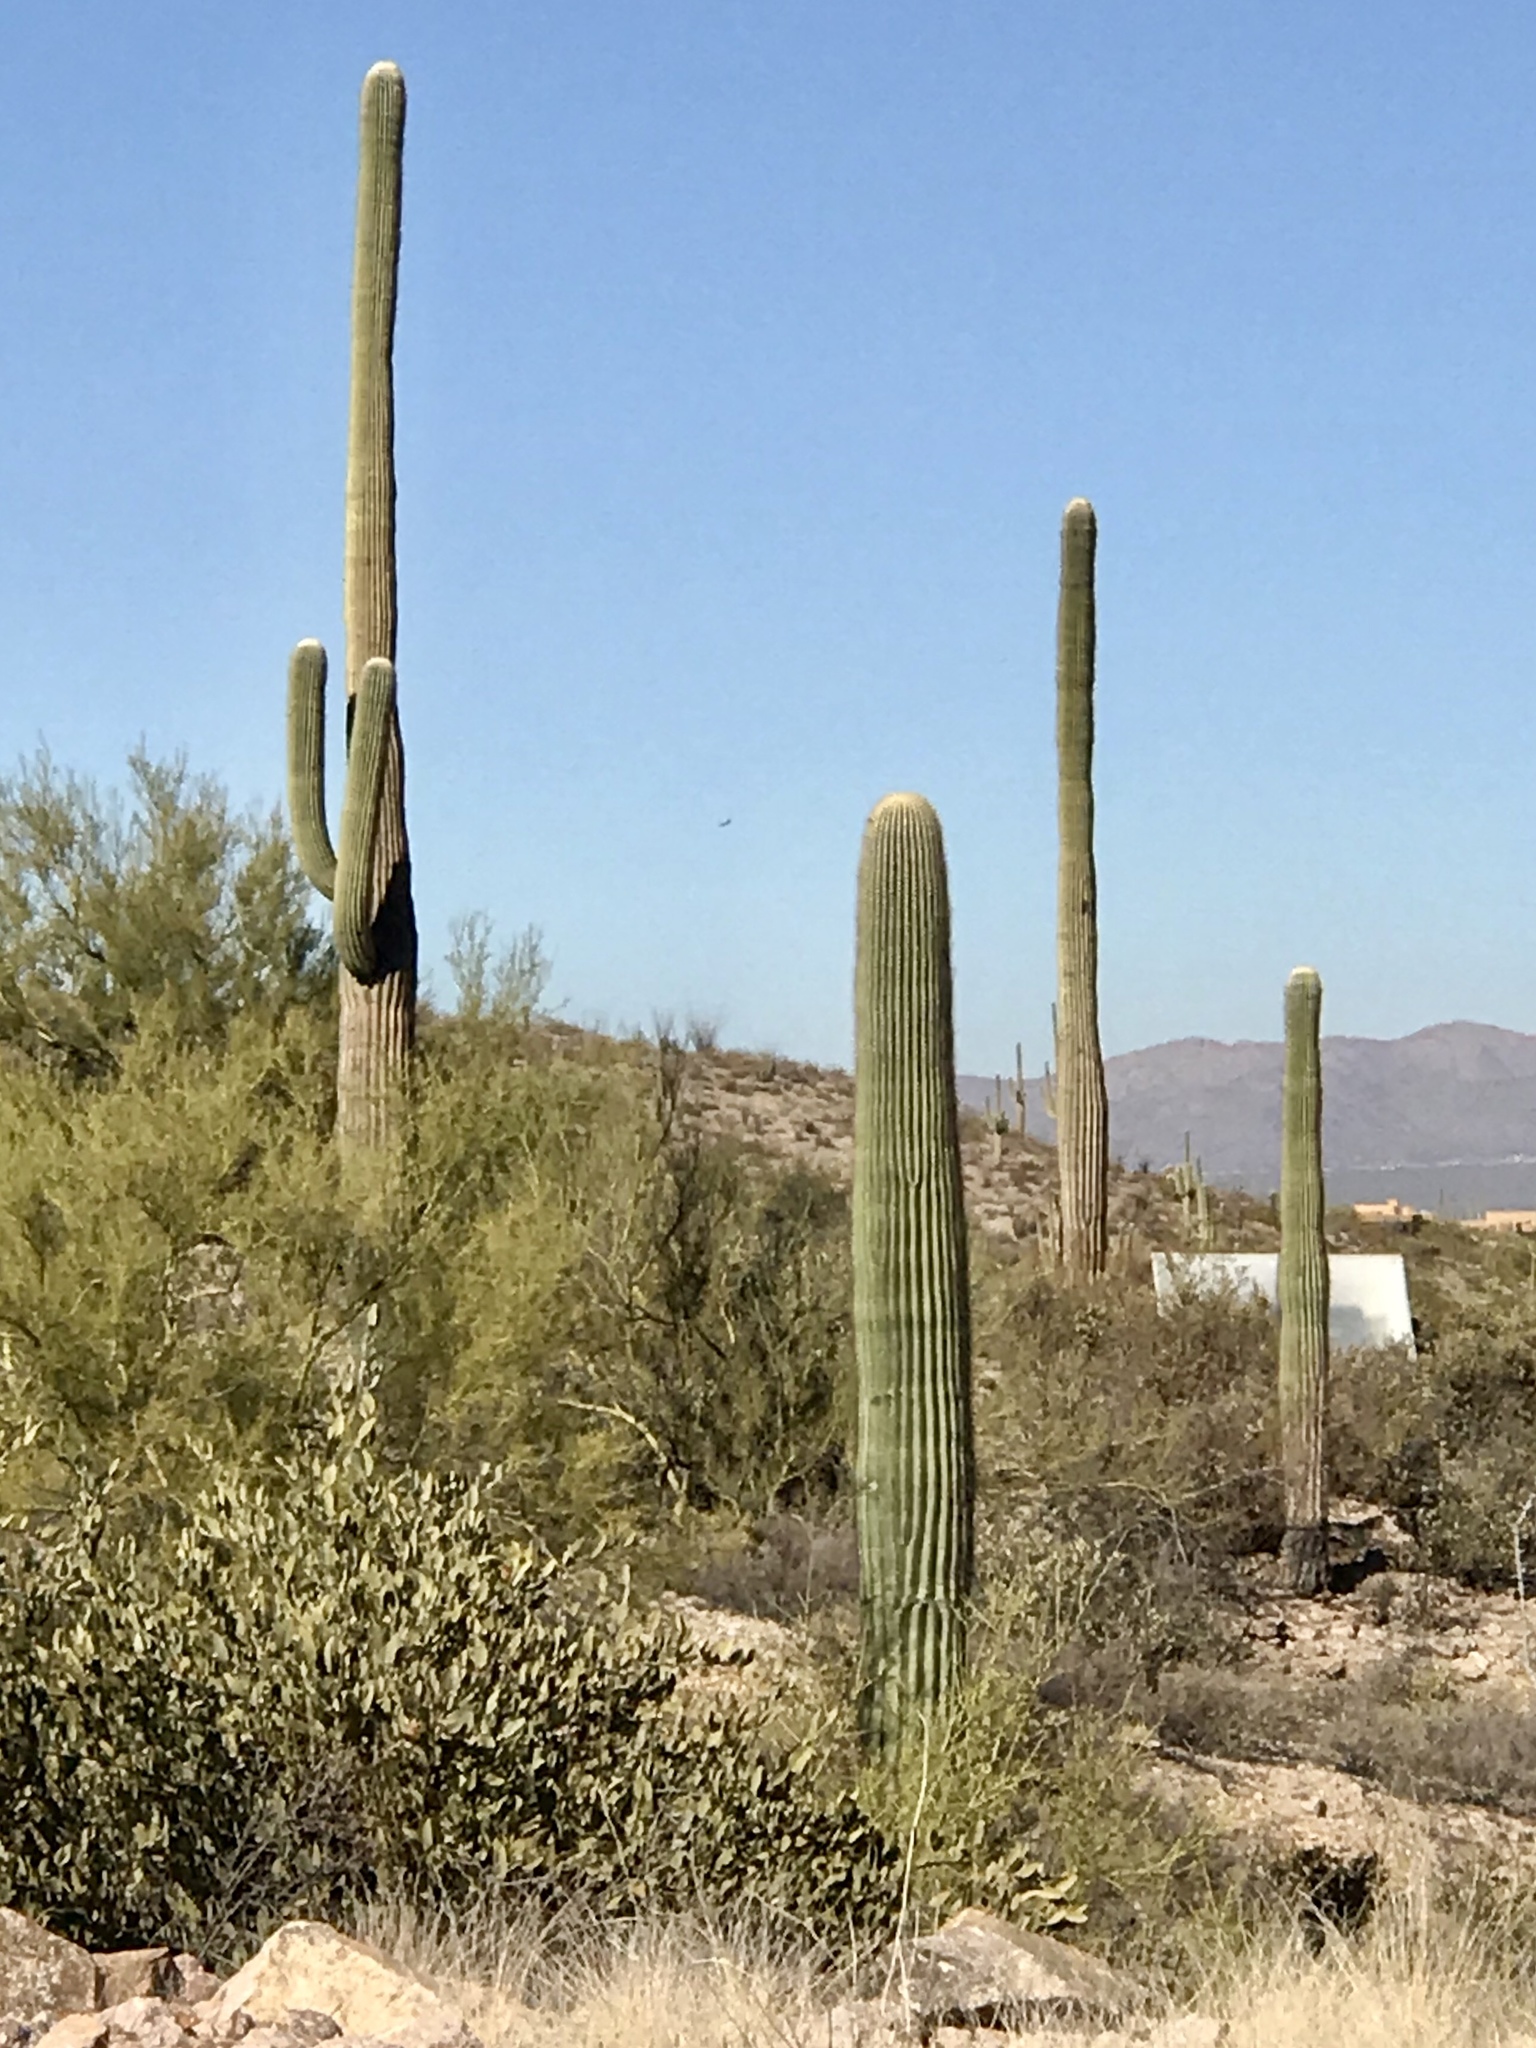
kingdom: Plantae
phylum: Tracheophyta
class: Magnoliopsida
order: Caryophyllales
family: Cactaceae
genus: Carnegiea
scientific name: Carnegiea gigantea
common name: Saguaro
